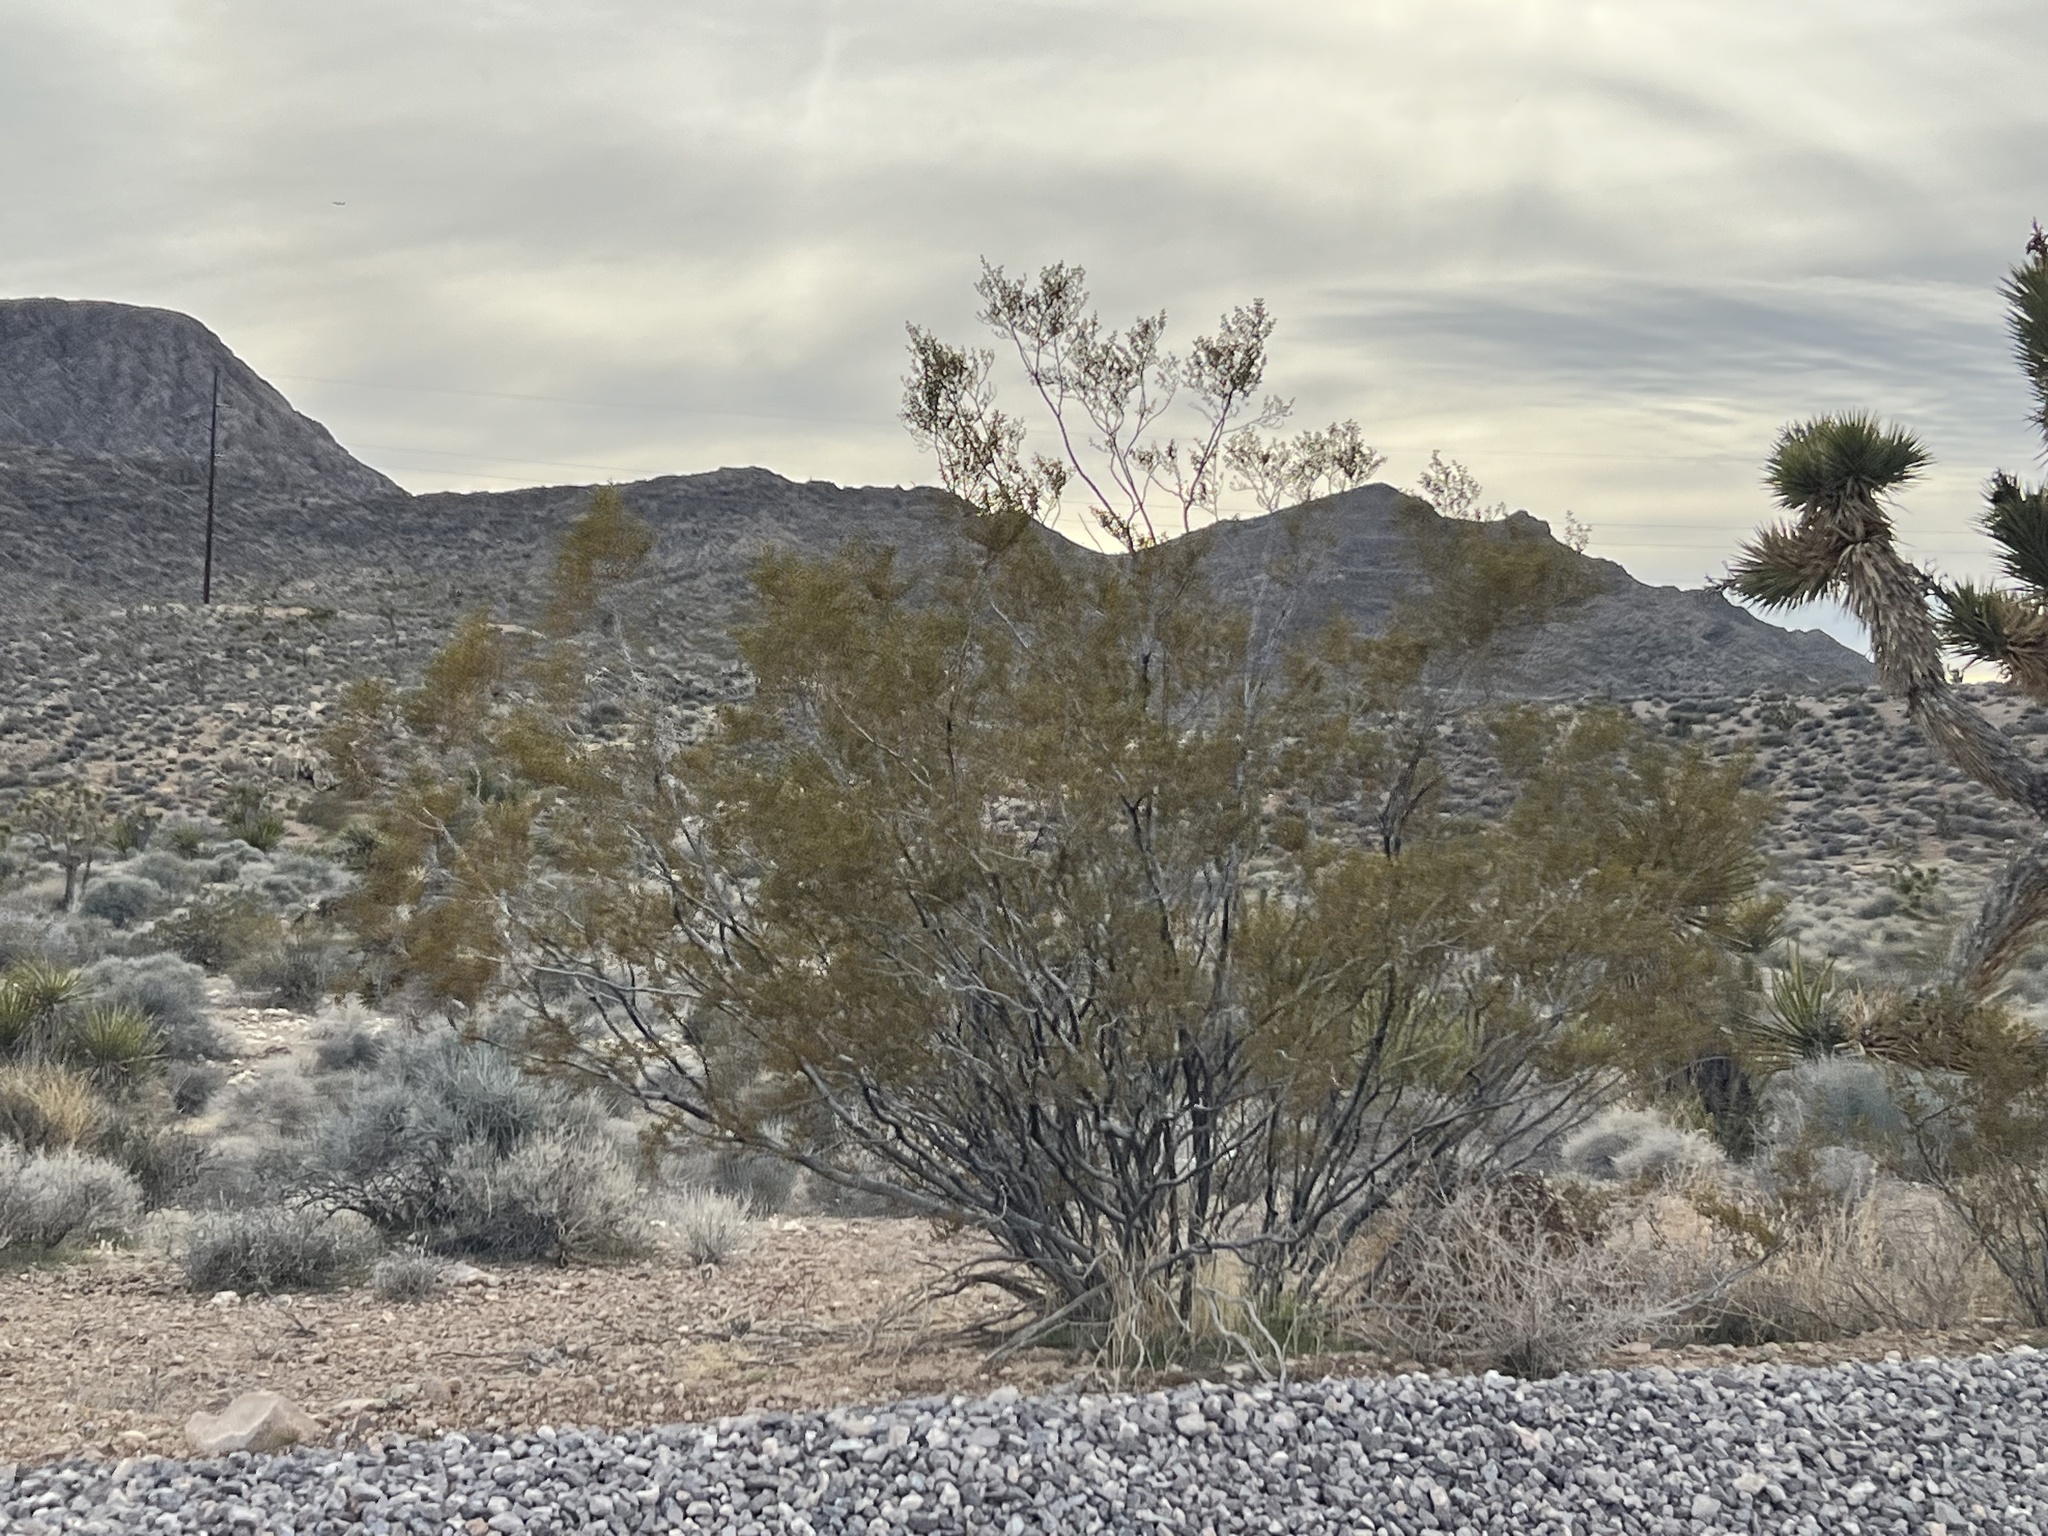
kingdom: Plantae
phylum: Tracheophyta
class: Magnoliopsida
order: Zygophyllales
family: Zygophyllaceae
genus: Larrea
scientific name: Larrea tridentata
